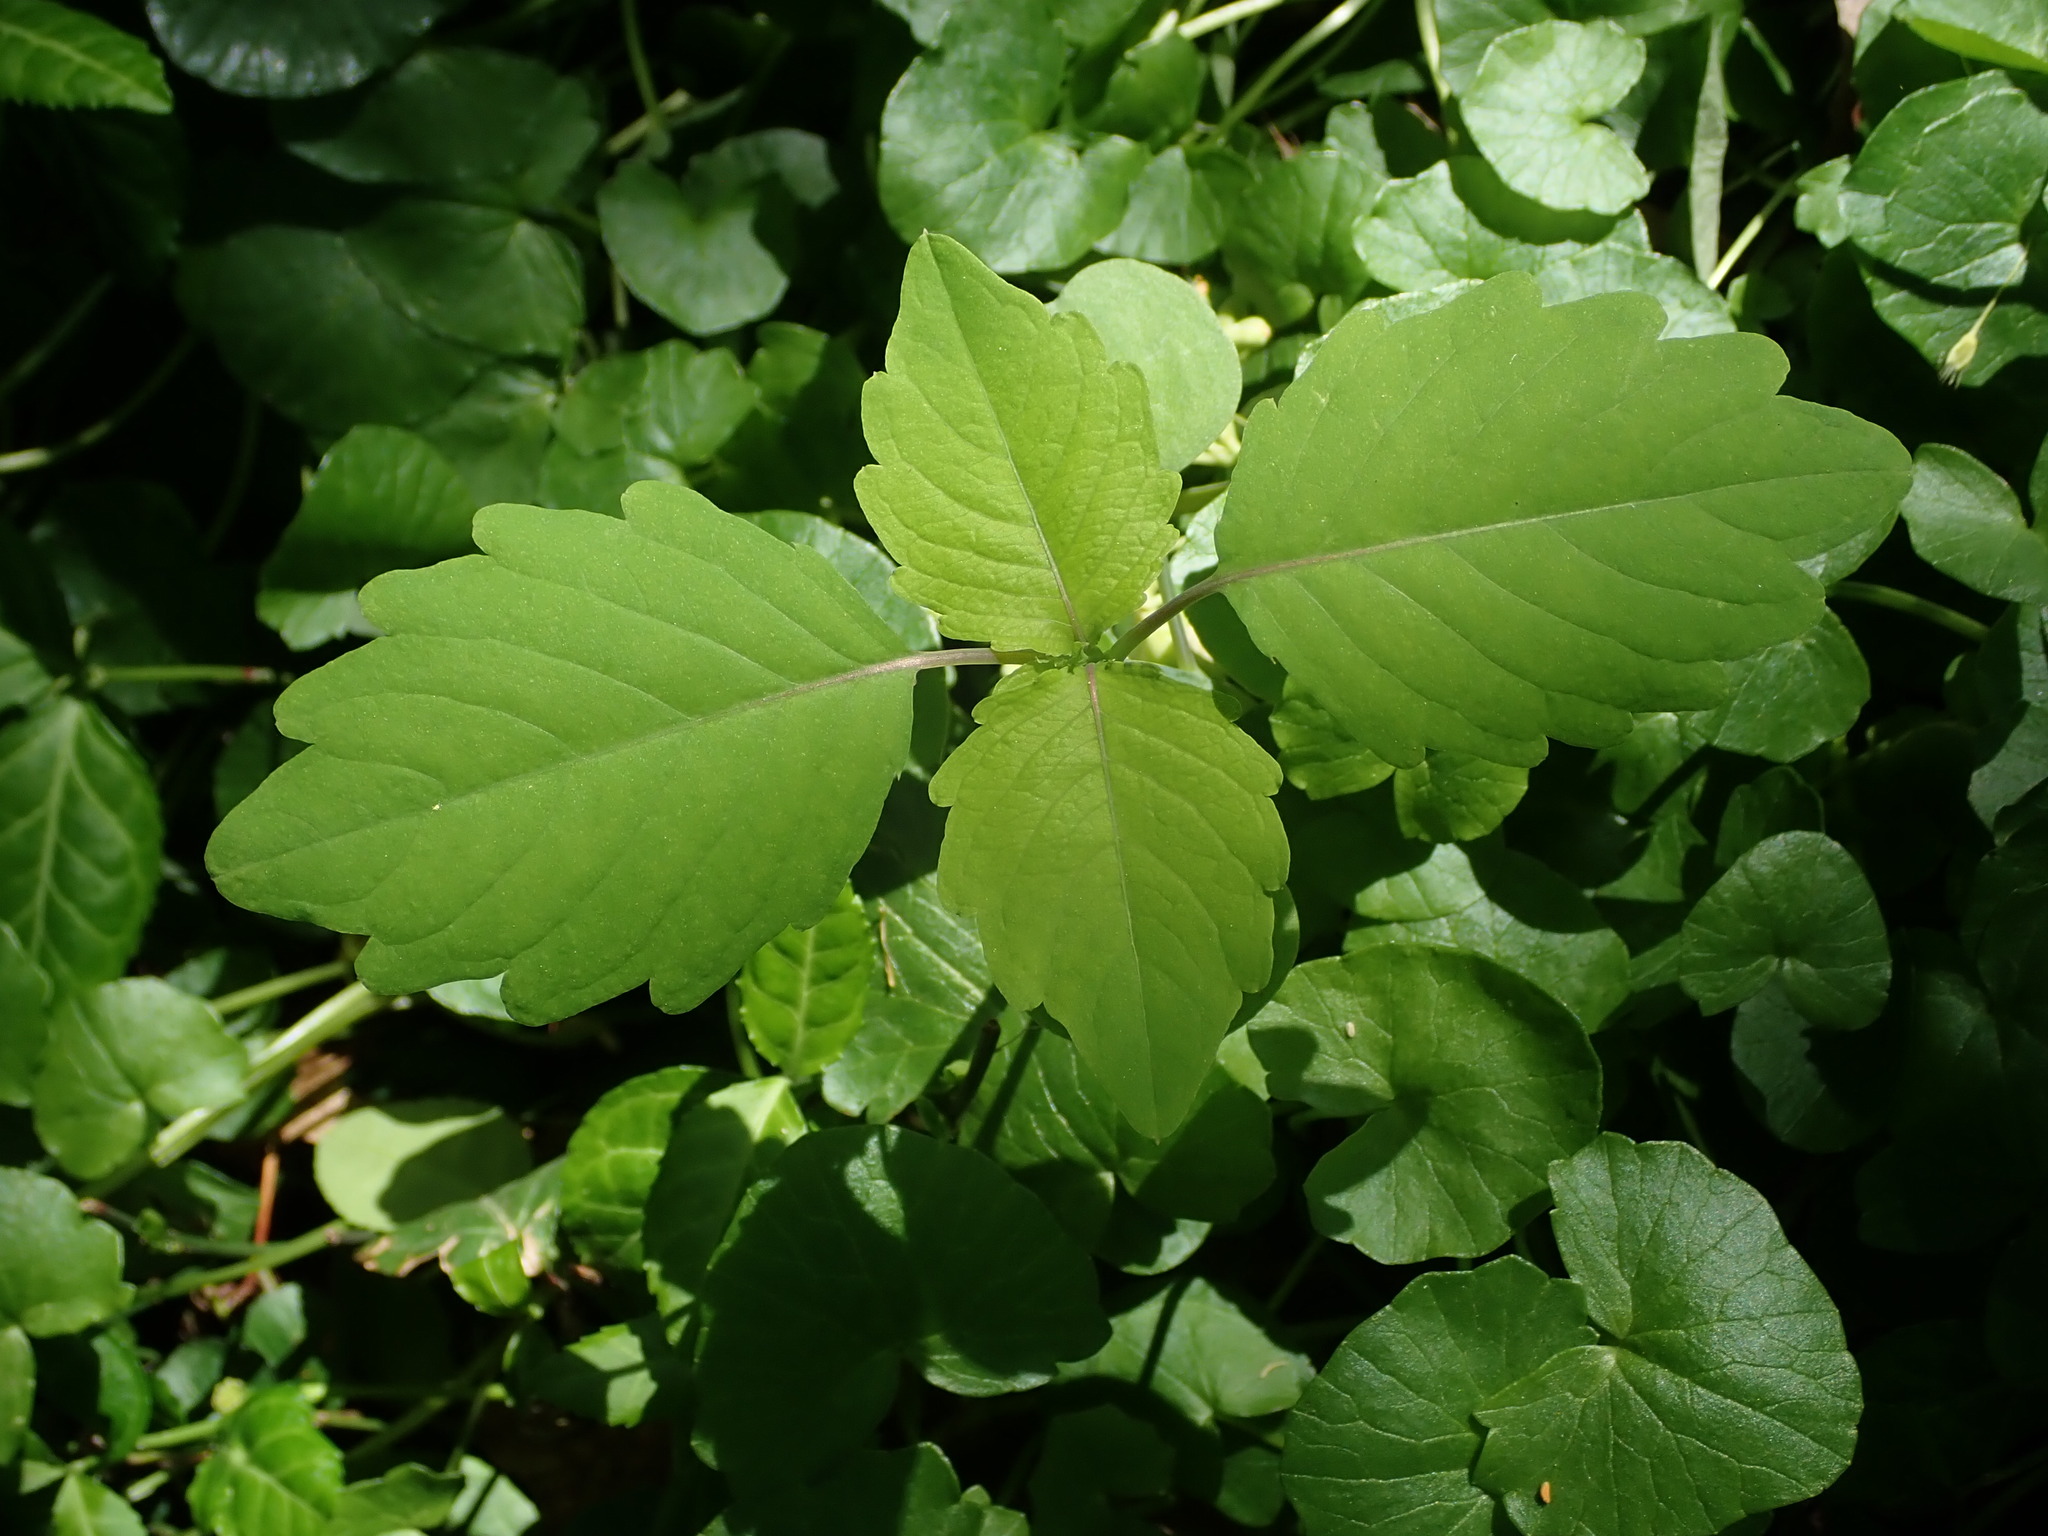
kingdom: Plantae
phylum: Tracheophyta
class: Magnoliopsida
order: Ericales
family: Balsaminaceae
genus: Impatiens
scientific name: Impatiens capensis
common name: Orange balsam
